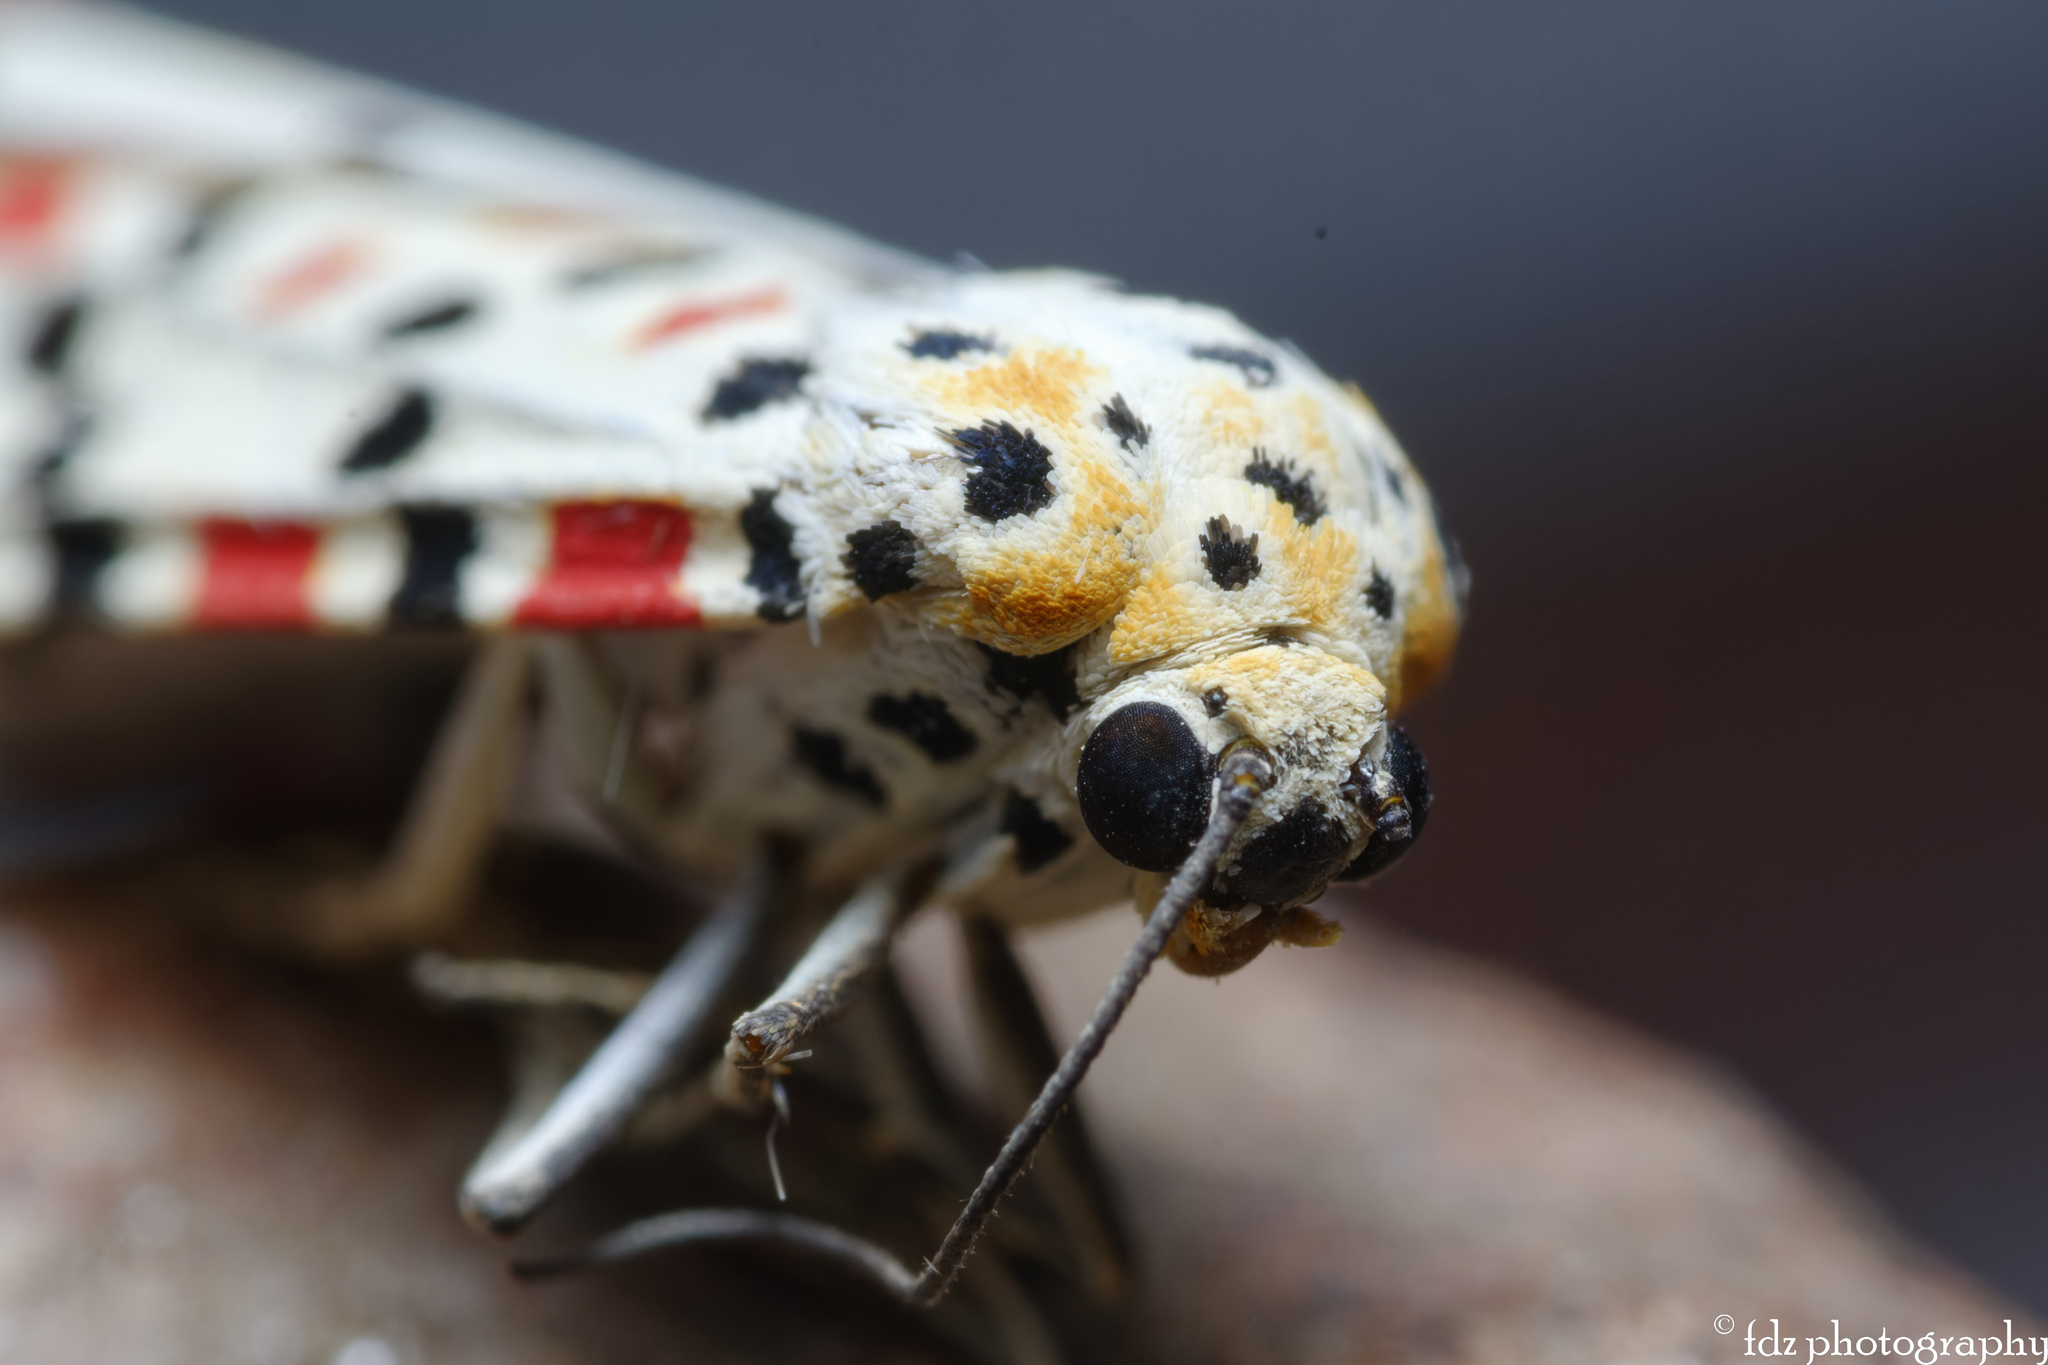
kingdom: Animalia
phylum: Arthropoda
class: Insecta
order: Lepidoptera
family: Erebidae
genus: Utetheisa
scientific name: Utetheisa pulchella
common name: Crimson speckled
